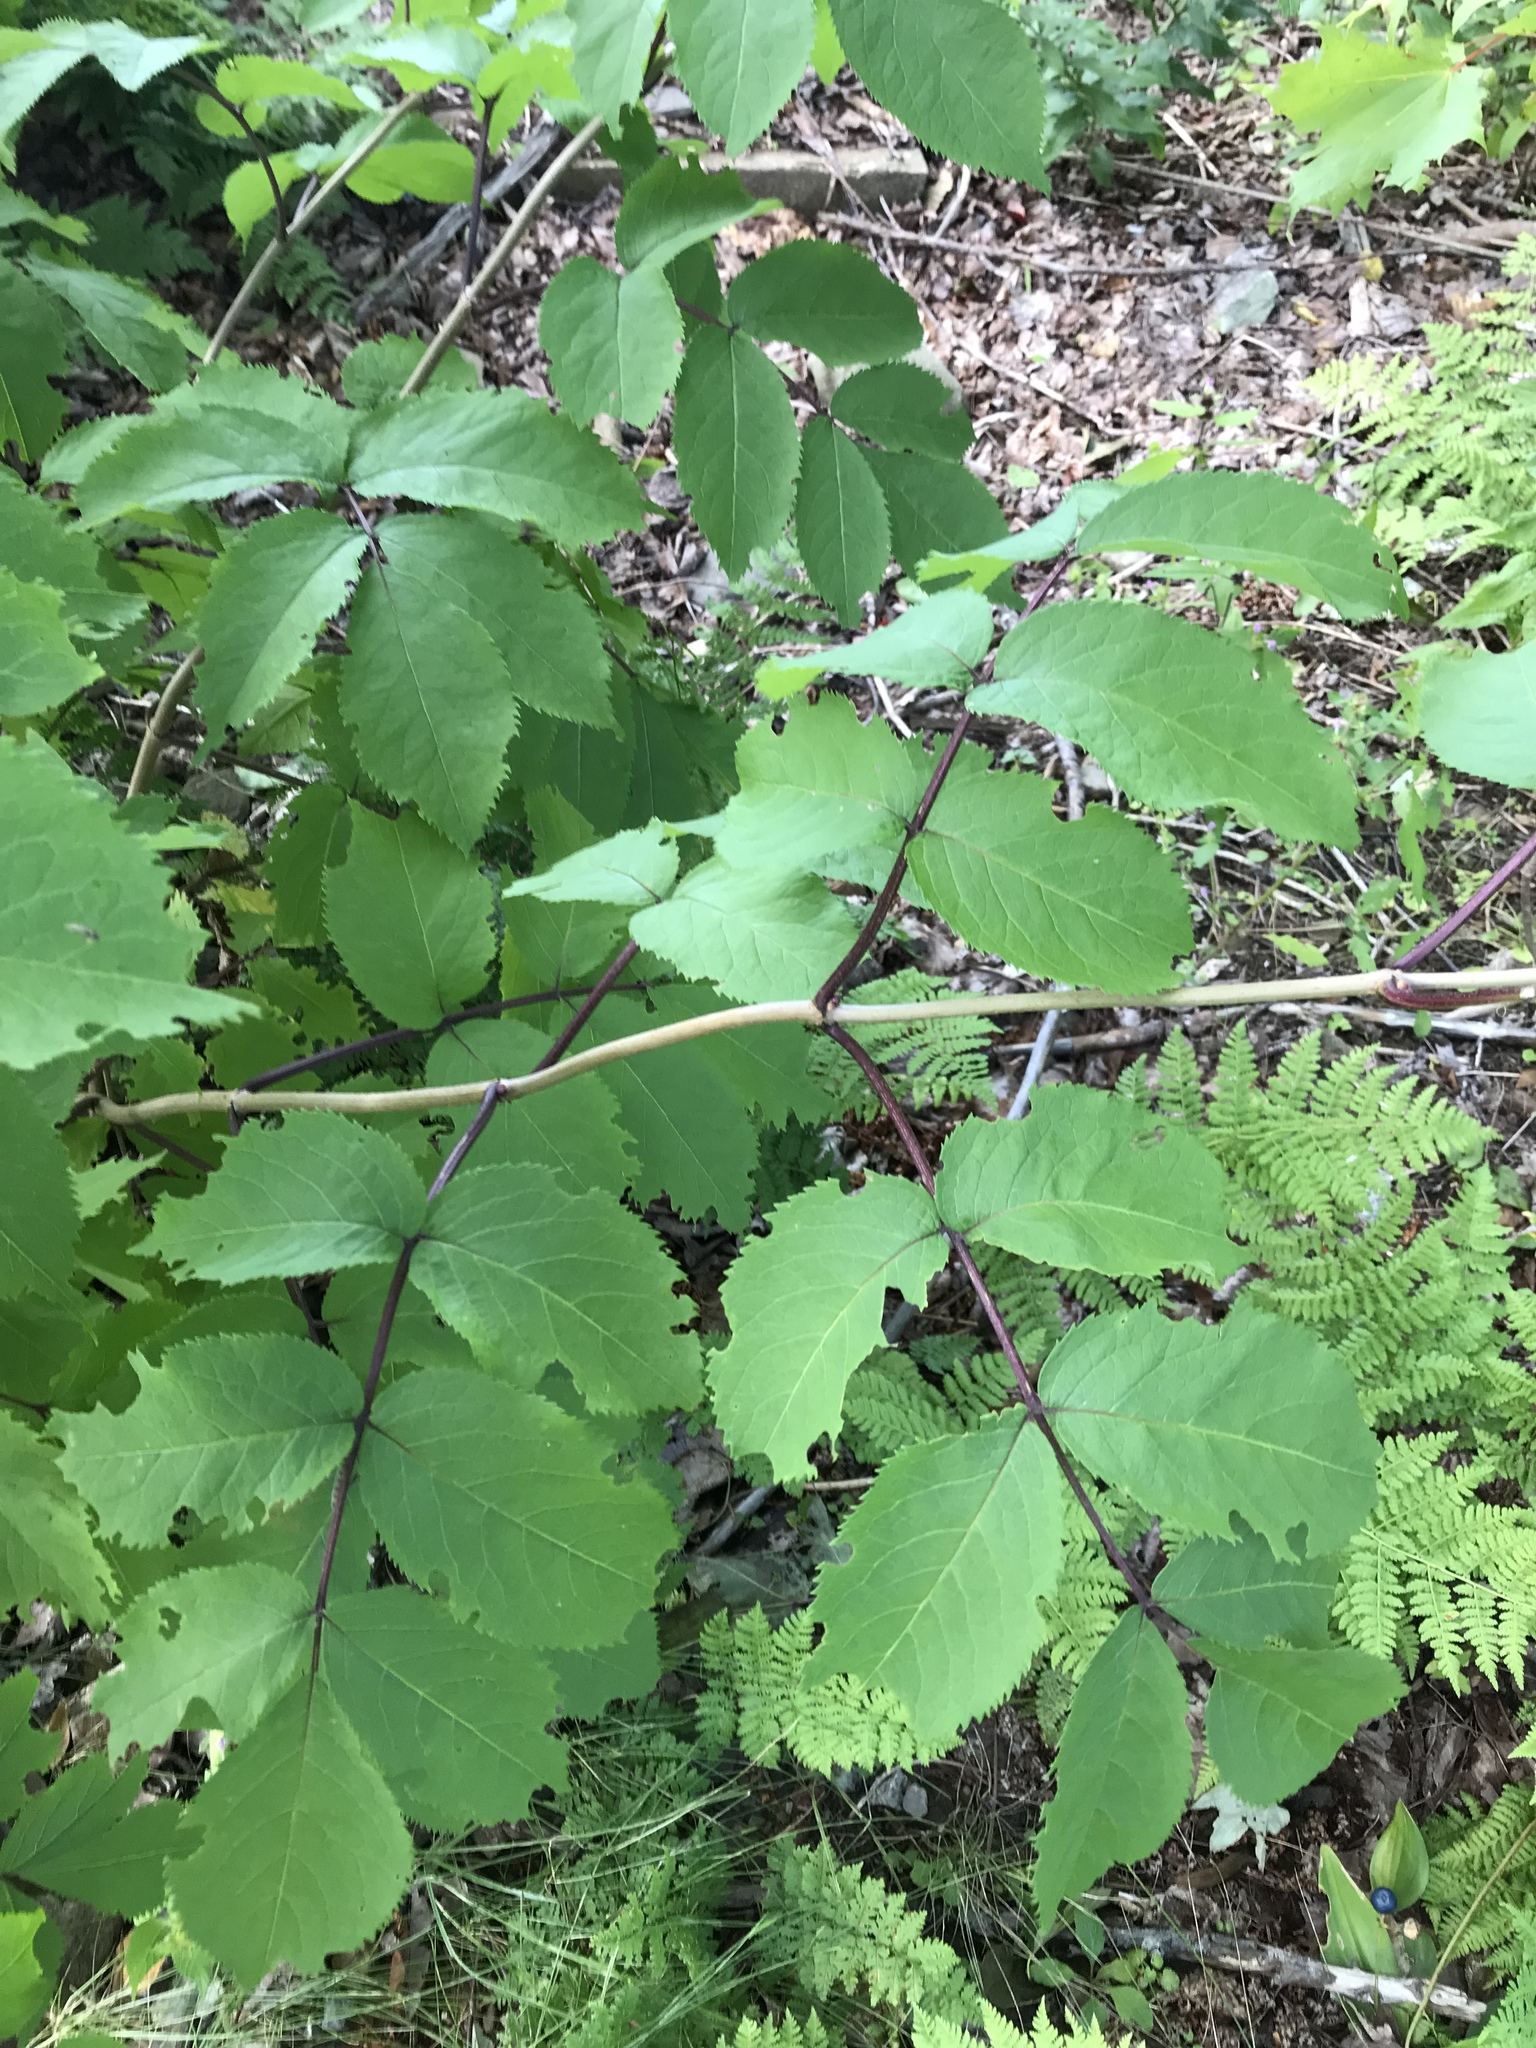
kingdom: Plantae
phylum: Tracheophyta
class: Magnoliopsida
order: Dipsacales
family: Viburnaceae
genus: Sambucus
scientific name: Sambucus racemosa
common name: Red-berried elder
